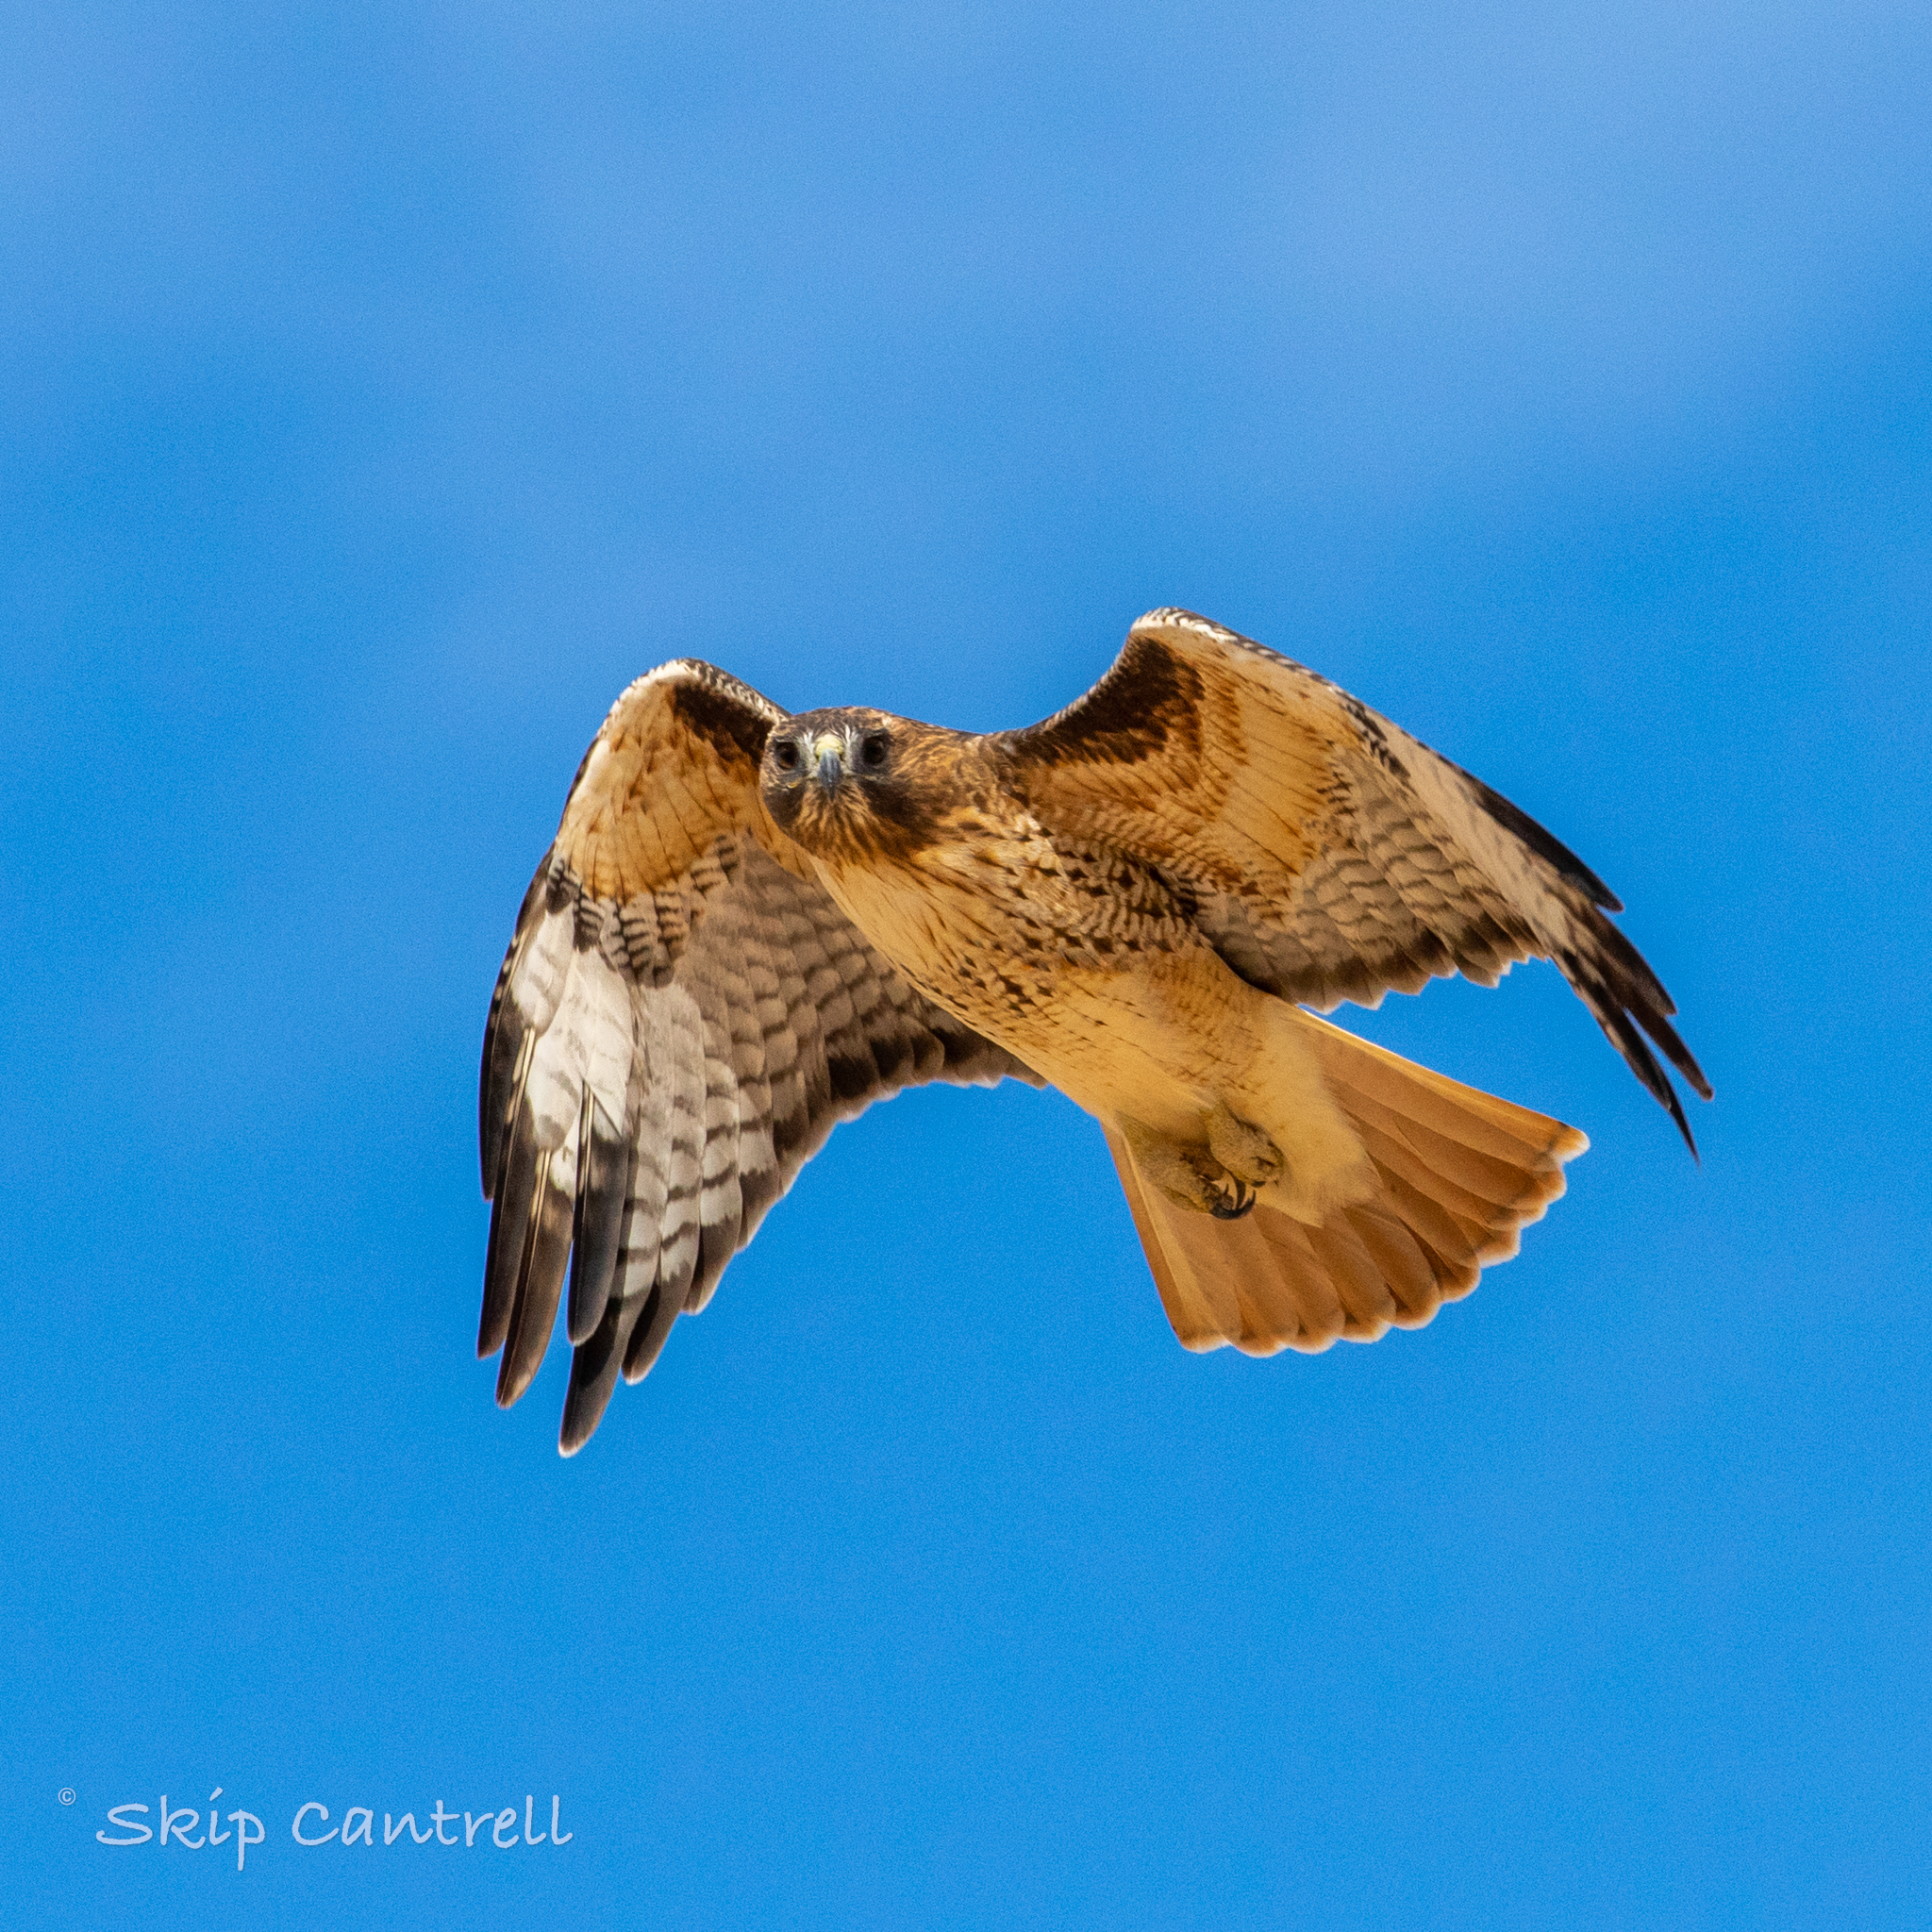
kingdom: Animalia
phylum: Chordata
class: Aves
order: Accipitriformes
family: Accipitridae
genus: Buteo
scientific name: Buteo jamaicensis
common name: Red-tailed hawk
